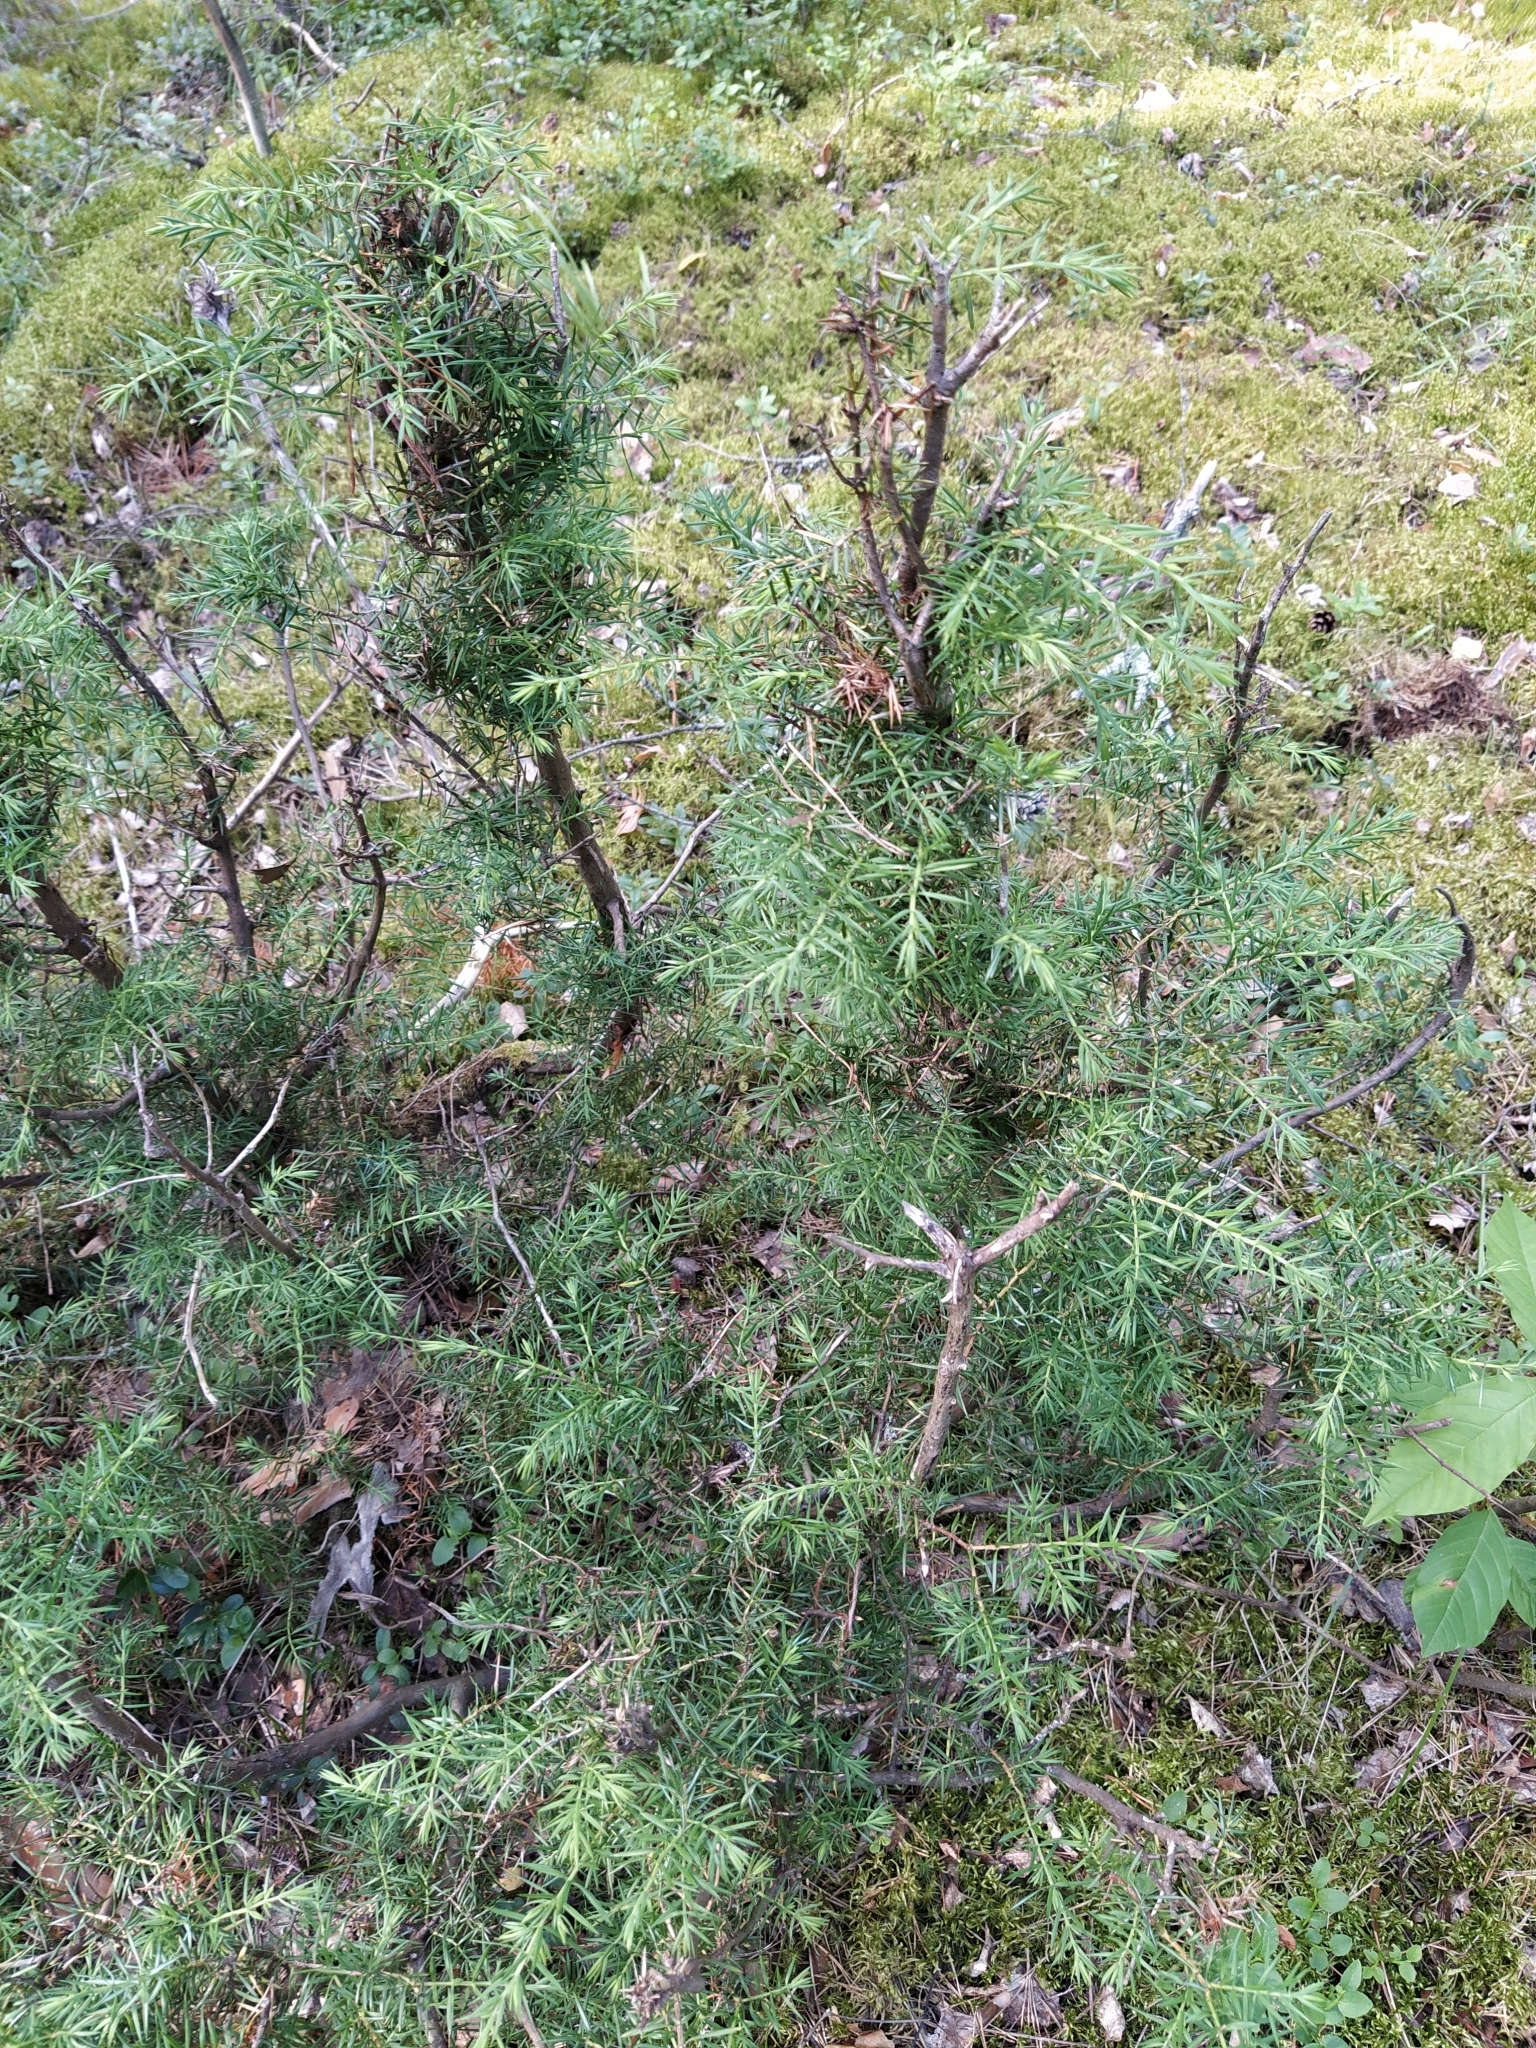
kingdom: Plantae
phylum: Tracheophyta
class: Pinopsida
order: Pinales
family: Cupressaceae
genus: Juniperus
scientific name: Juniperus communis
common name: Common juniper
